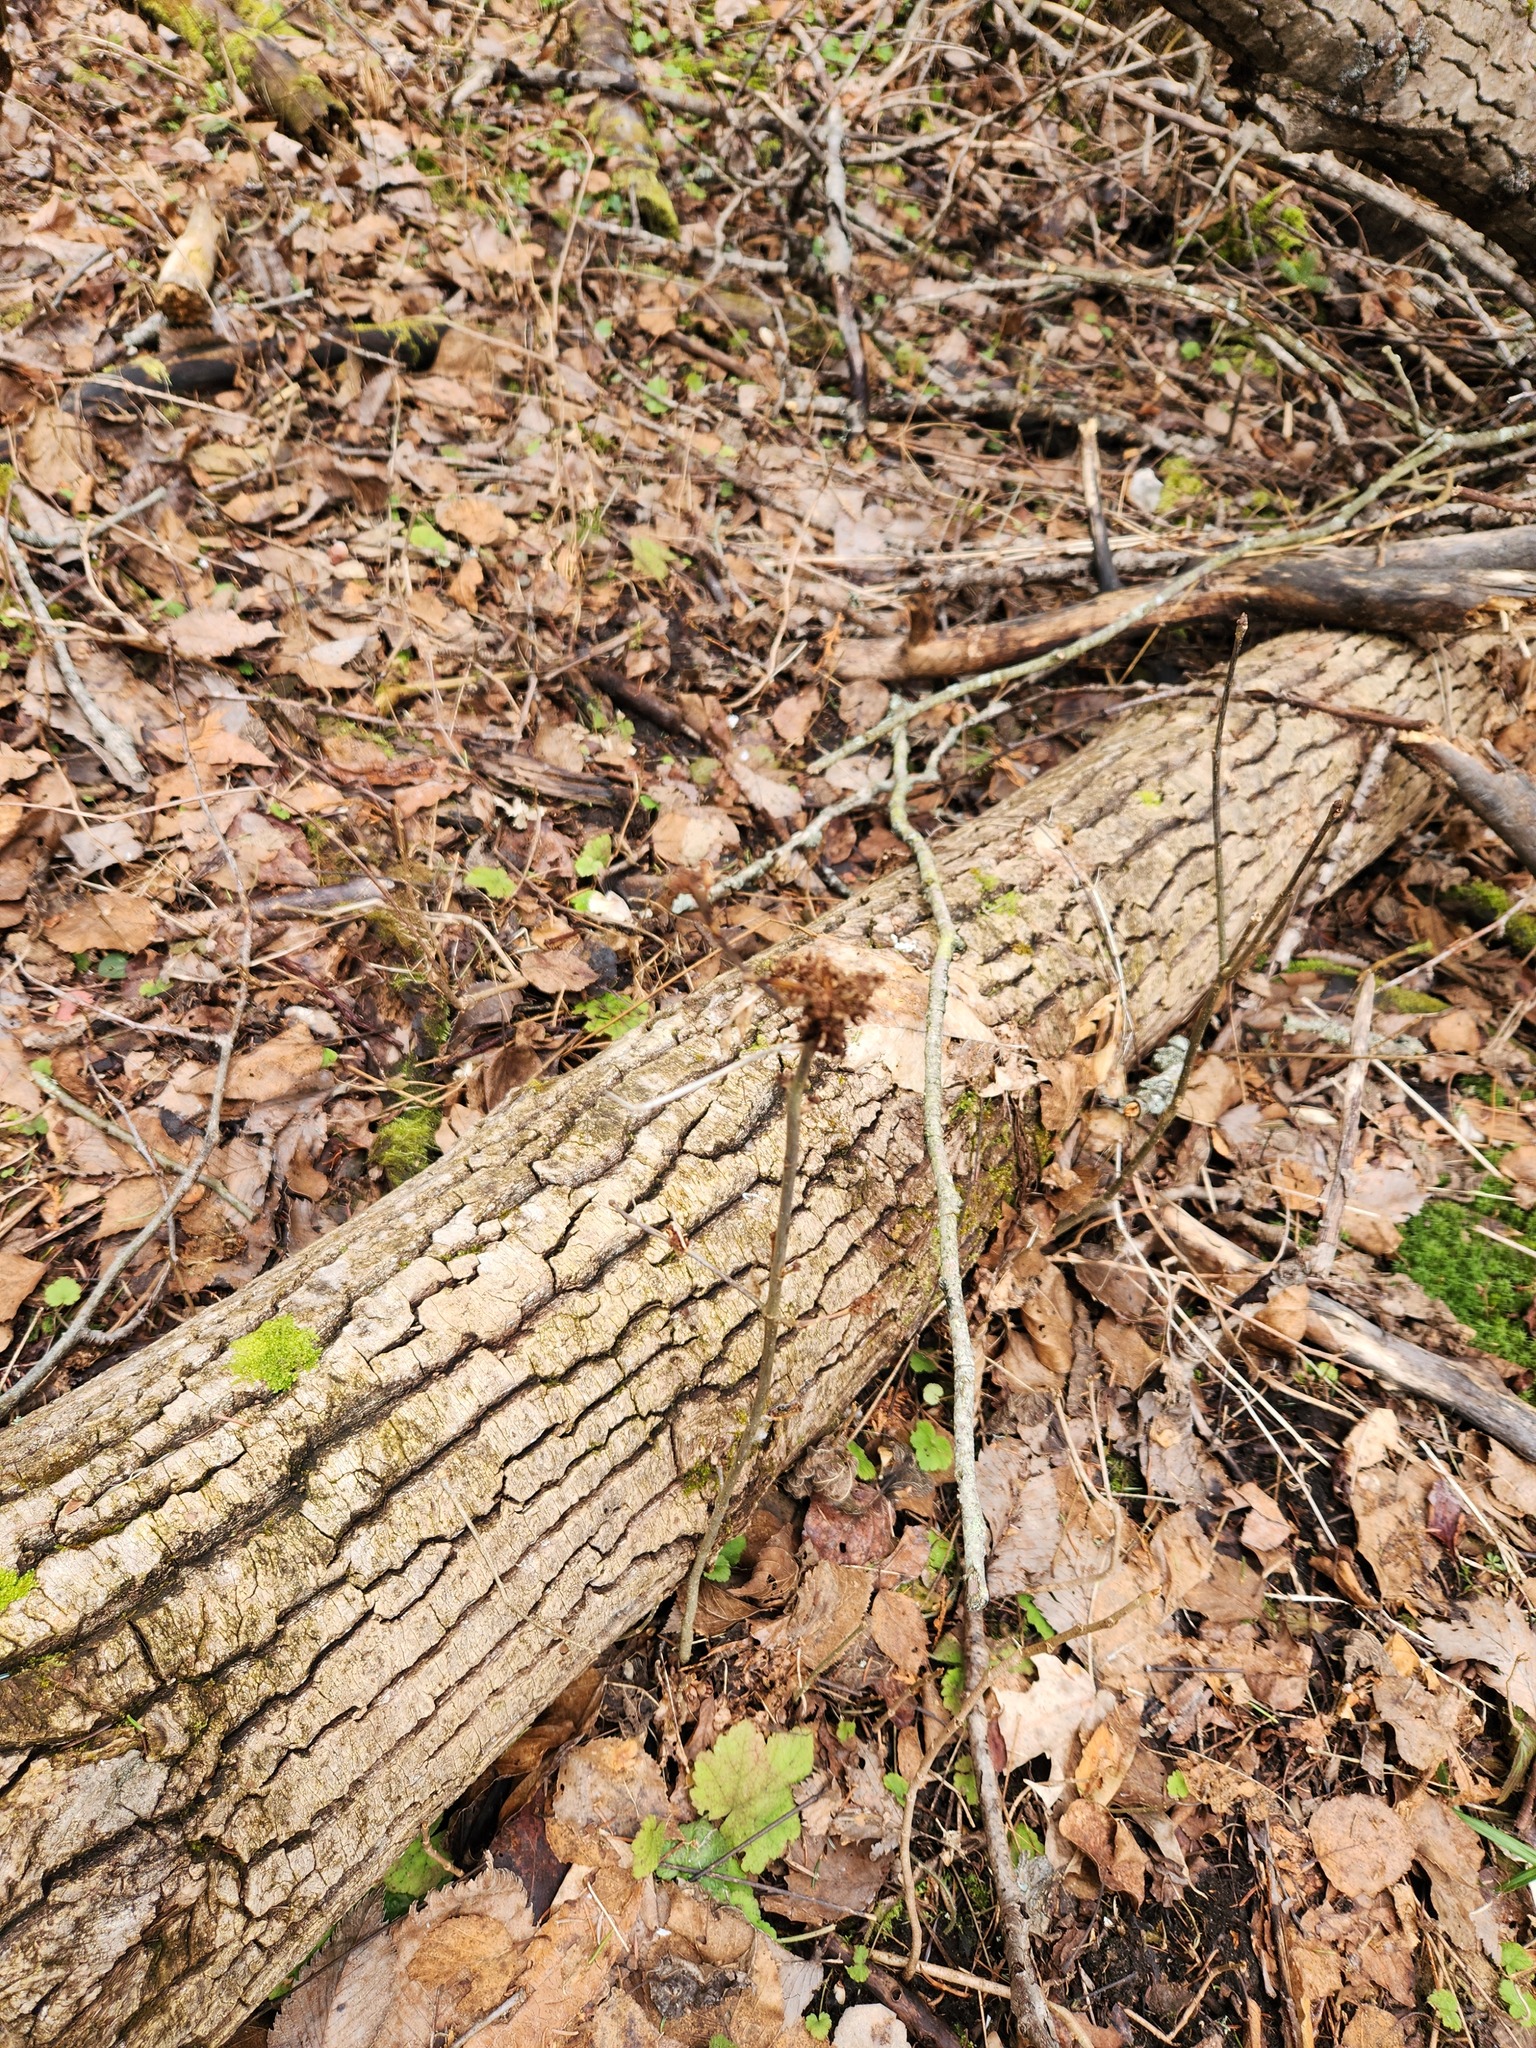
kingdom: Animalia
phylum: Arthropoda
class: Arachnida
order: Trombidiformes
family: Eriophyidae
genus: Aceria
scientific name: Aceria fraxiniflora
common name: Ash flower gall mite
